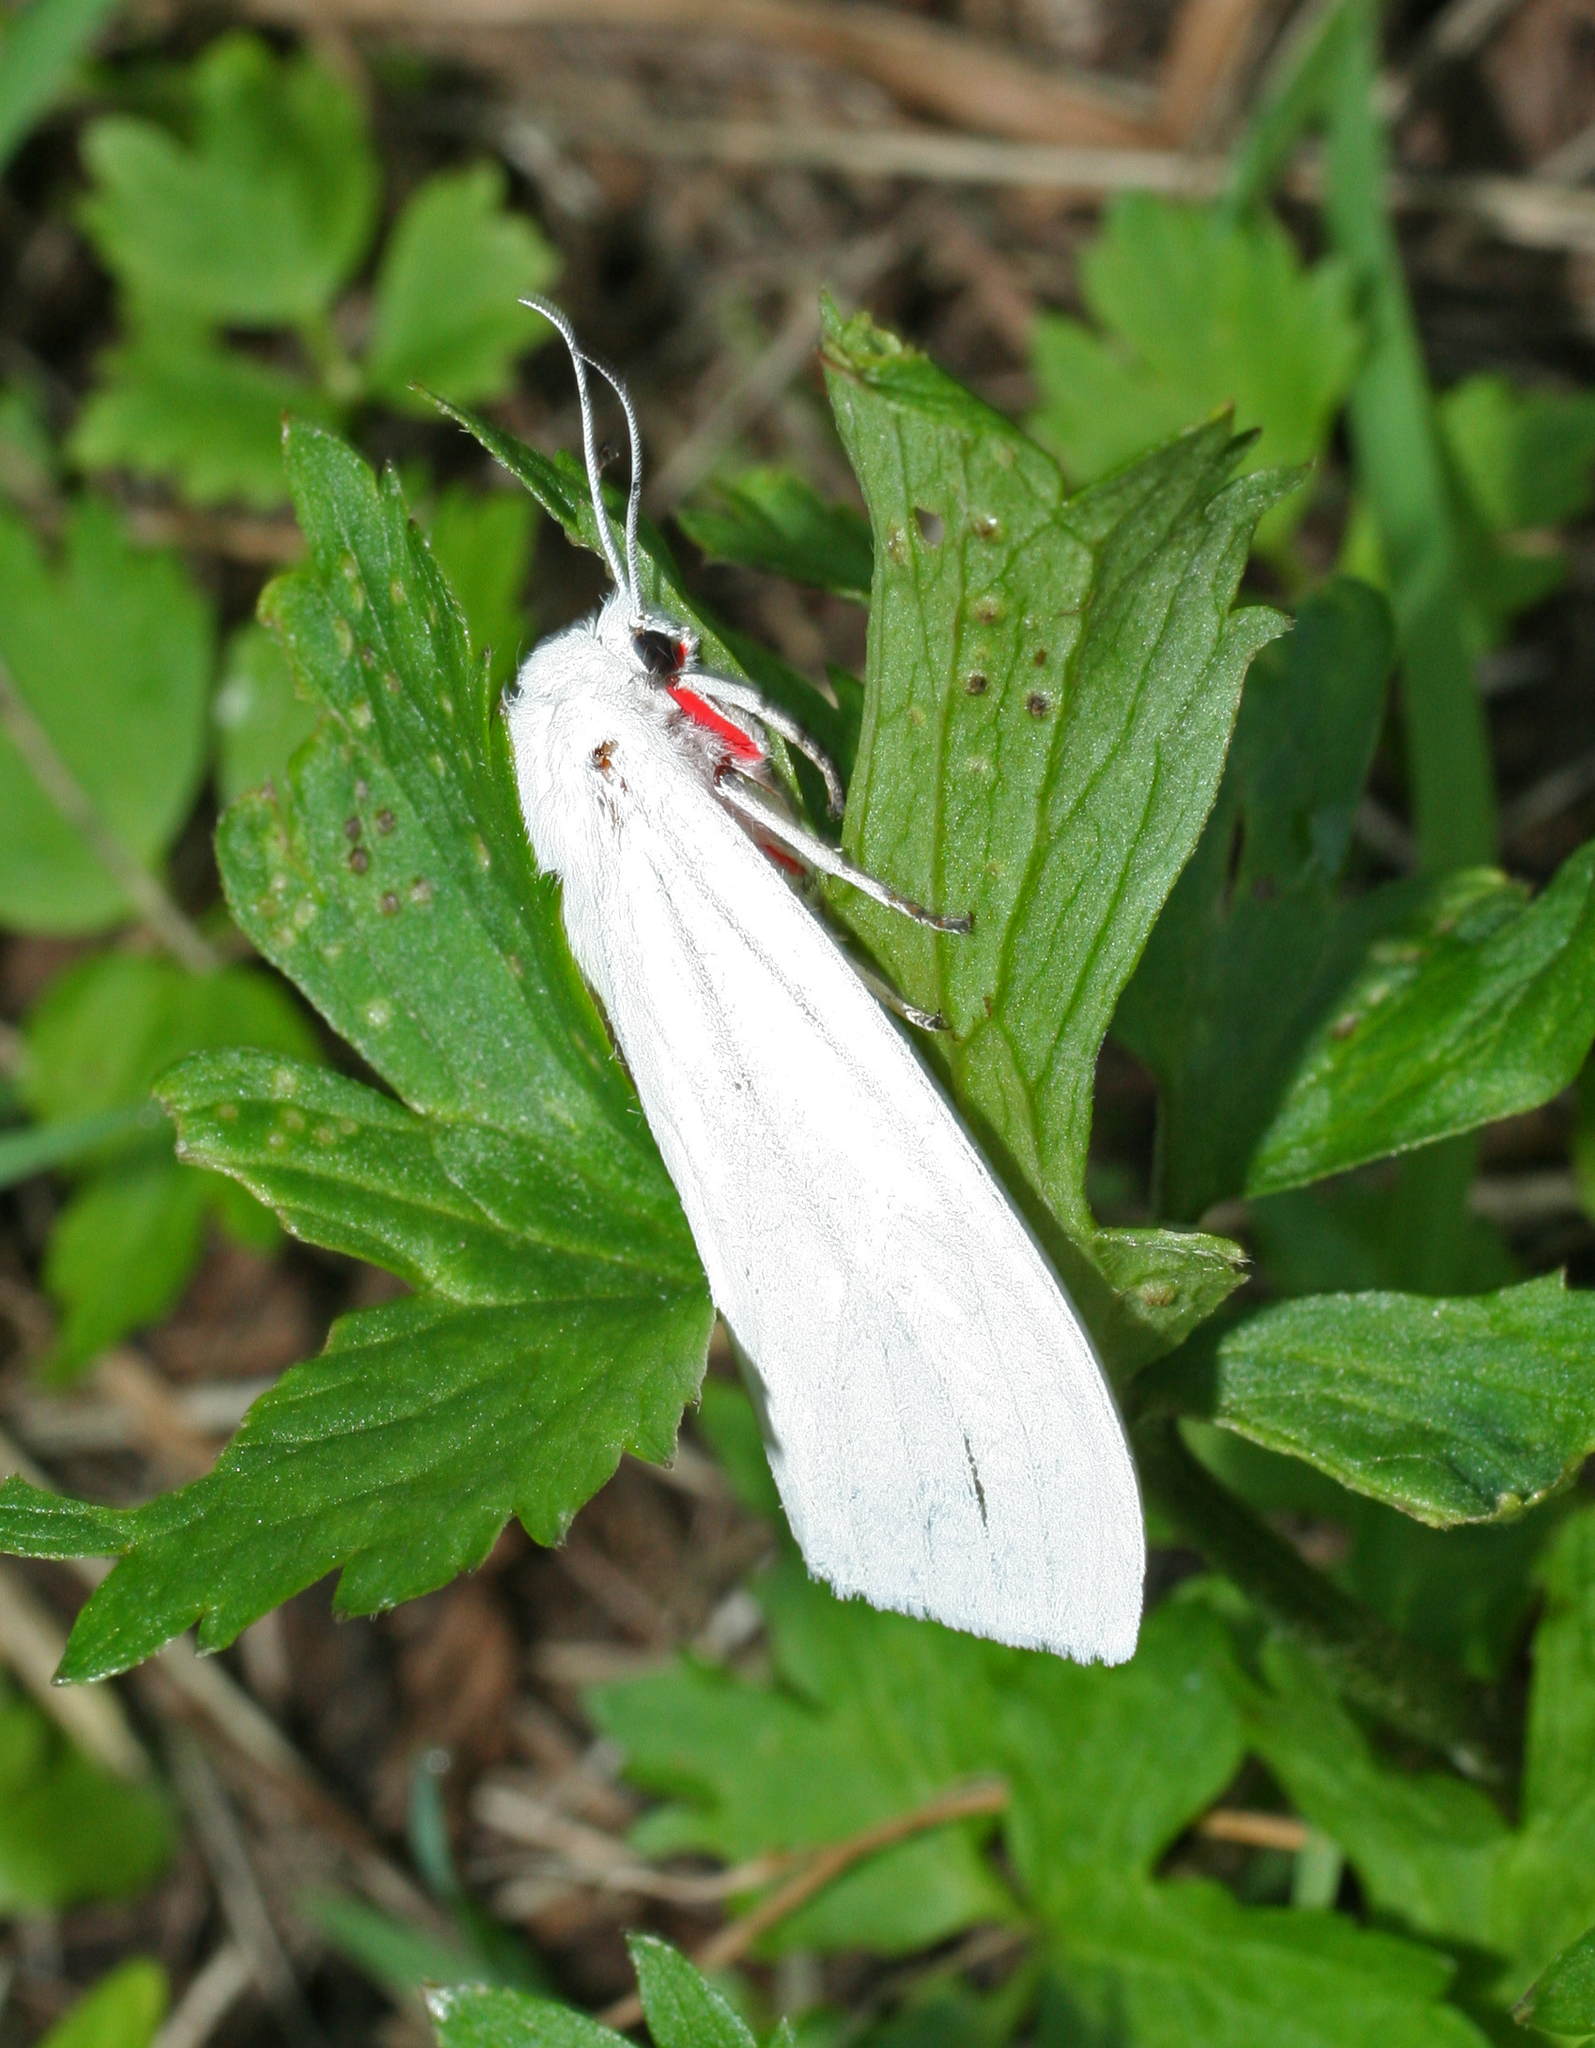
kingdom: Animalia
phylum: Arthropoda
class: Insecta
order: Lepidoptera
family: Erebidae
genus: Chionarctia
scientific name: Chionarctia nivea
